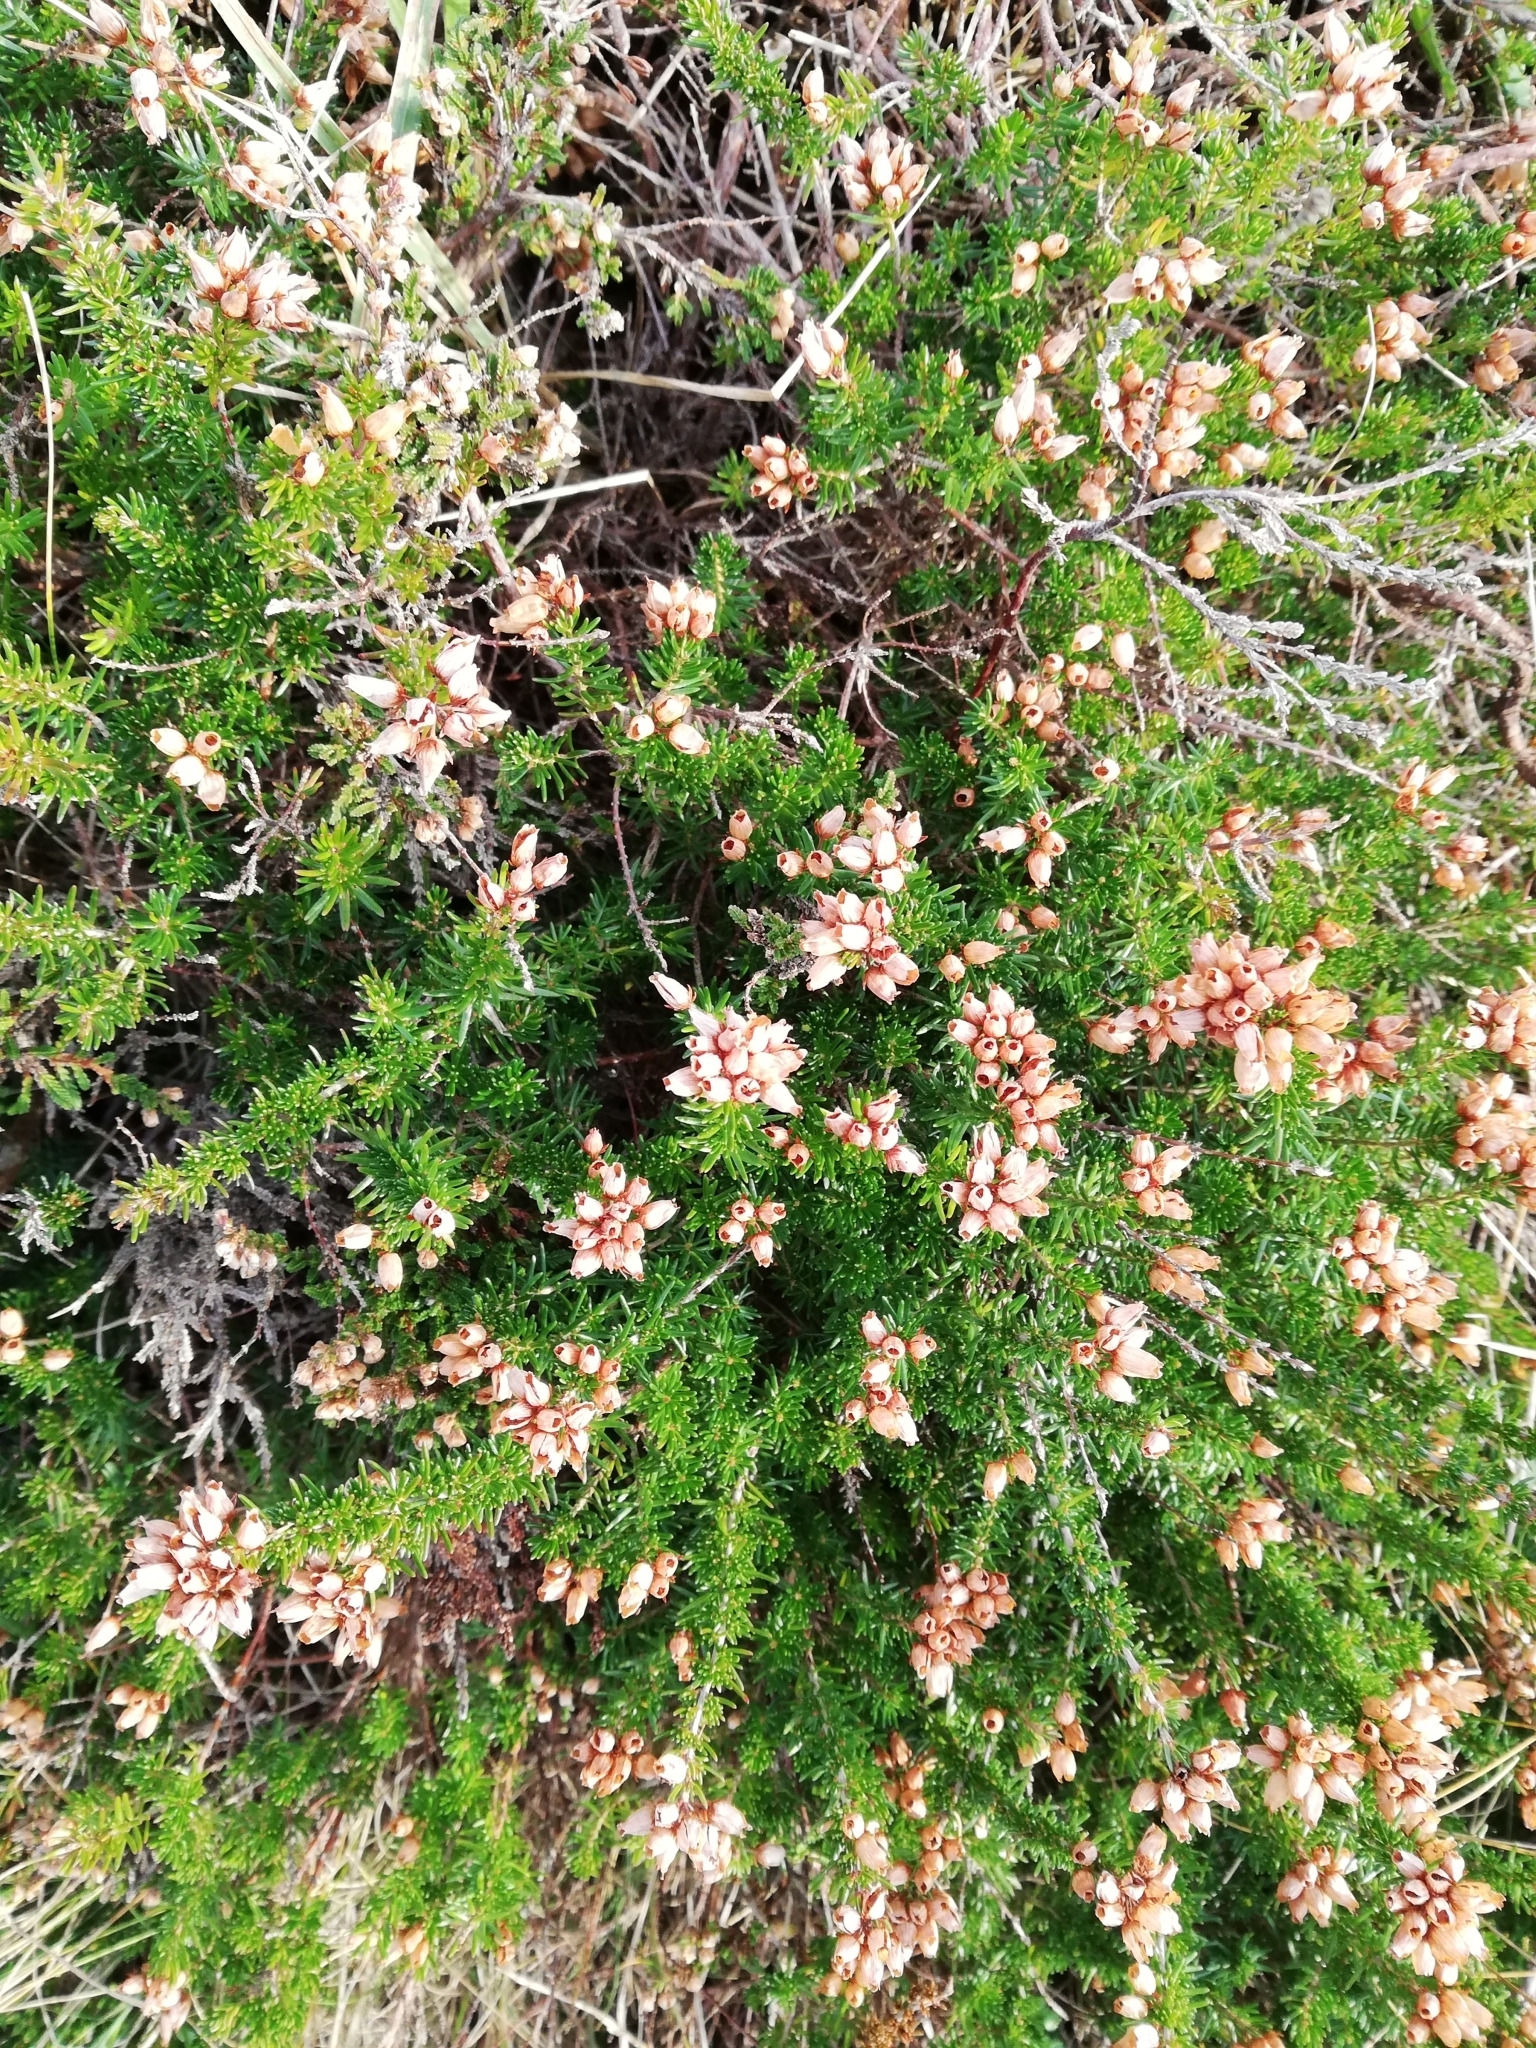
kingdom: Plantae
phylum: Tracheophyta
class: Magnoliopsida
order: Ericales
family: Ericaceae
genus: Erica
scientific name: Erica cinerea
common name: Bell heather
